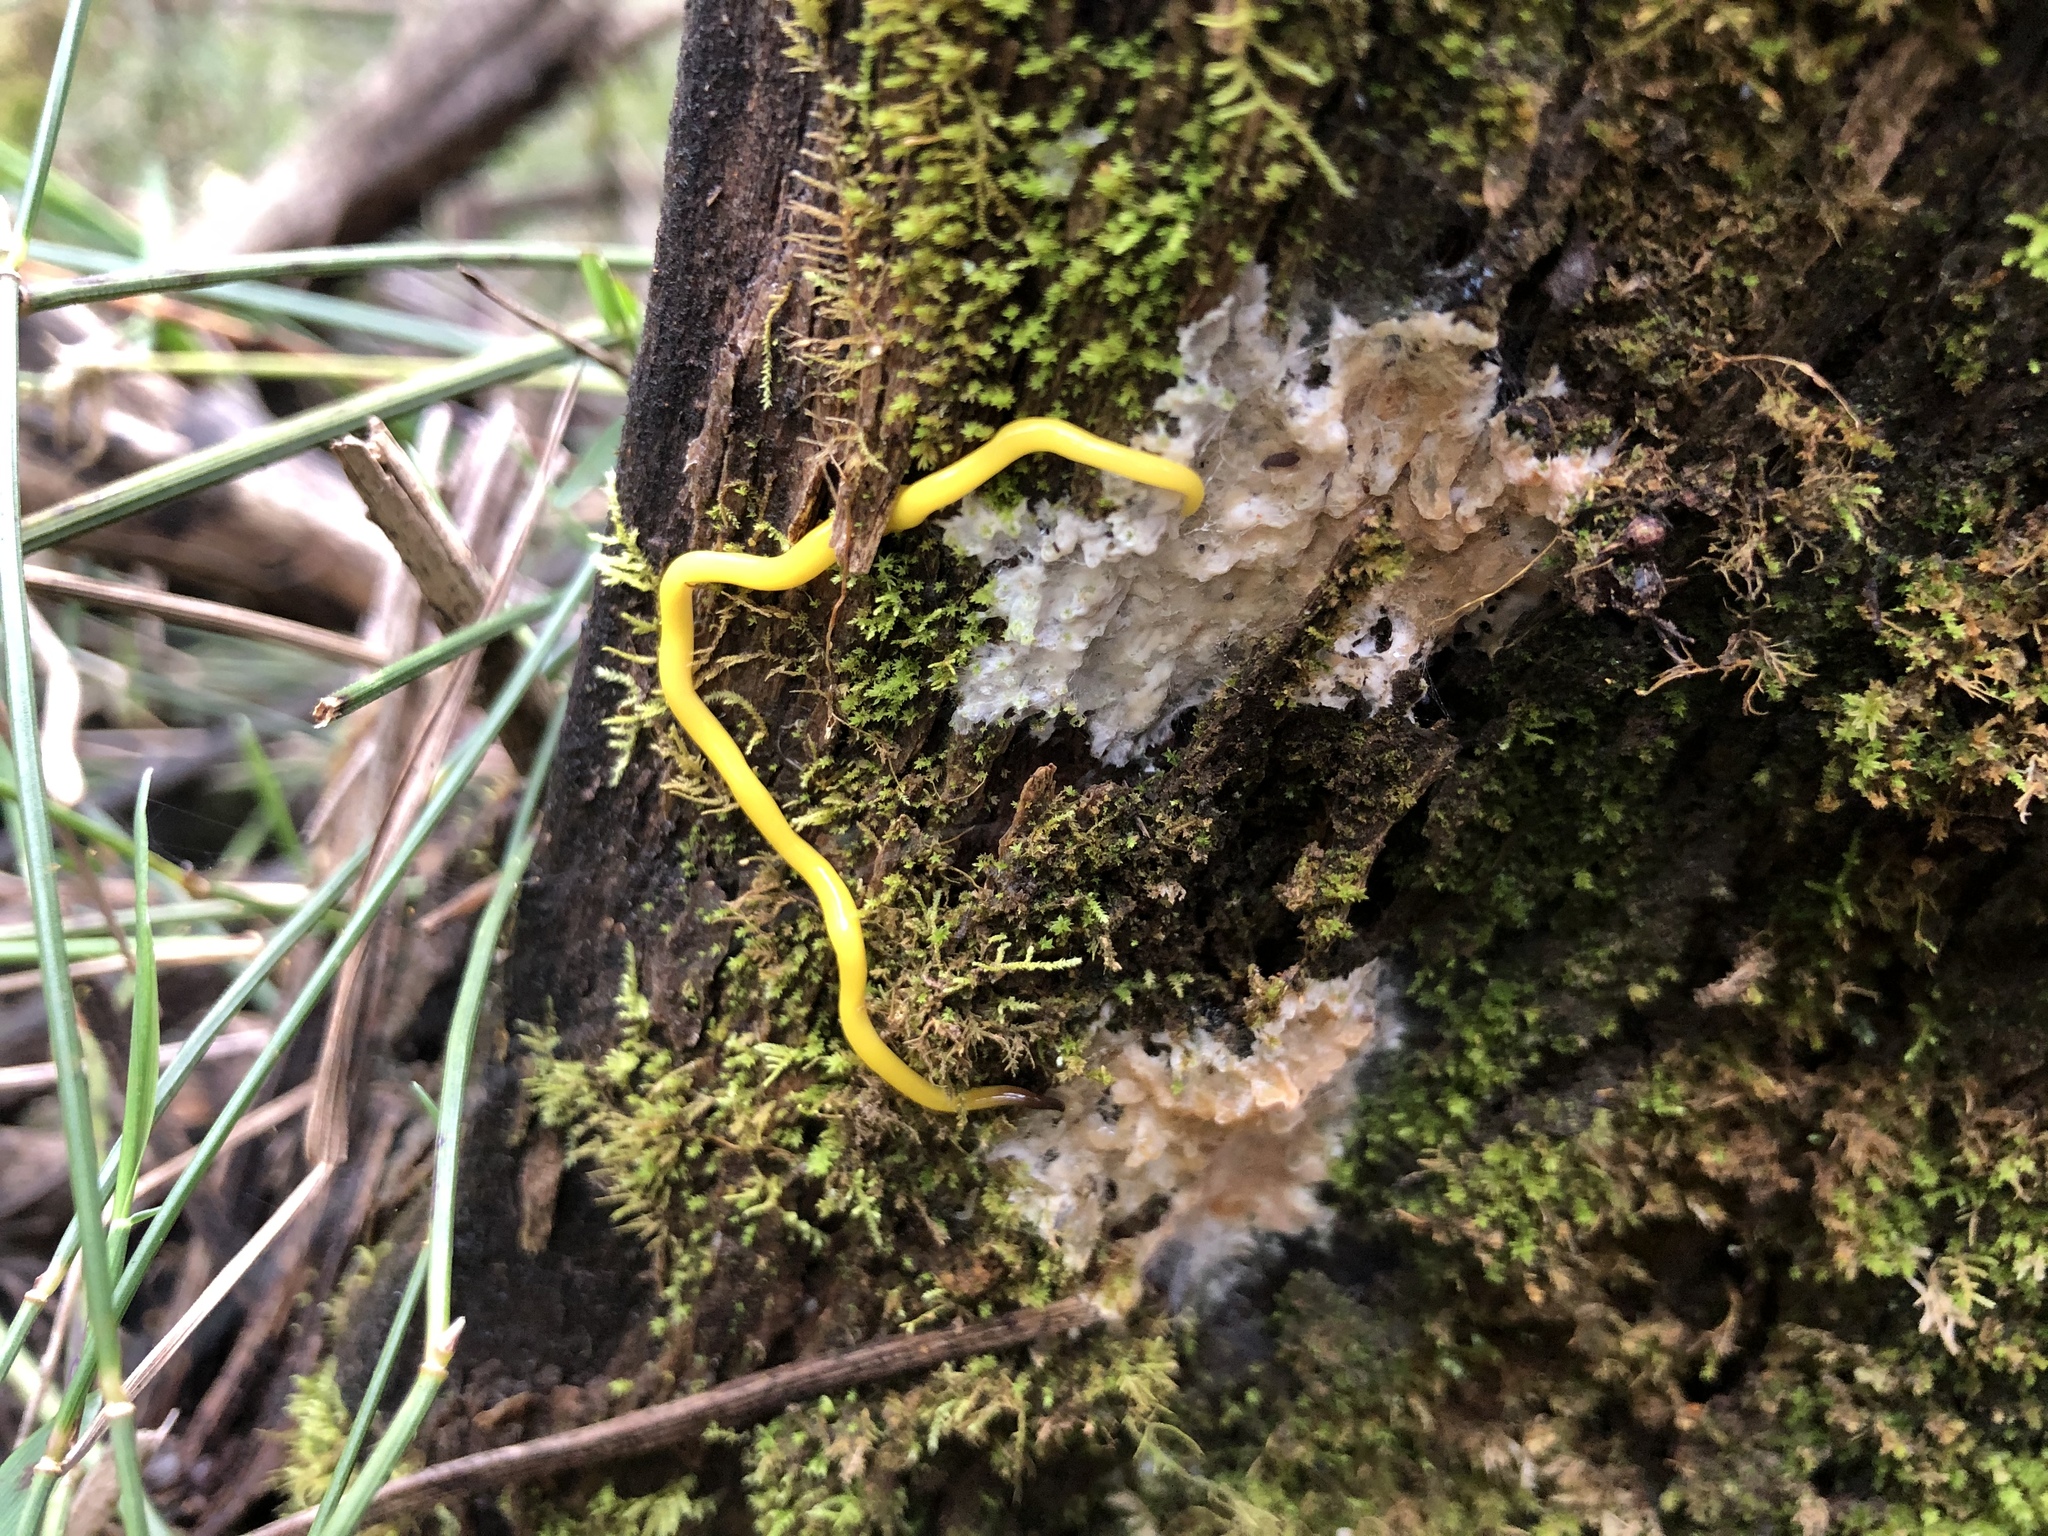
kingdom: Animalia
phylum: Platyhelminthes
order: Tricladida
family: Geoplanidae
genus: Fletchamia
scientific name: Fletchamia sugdeni
